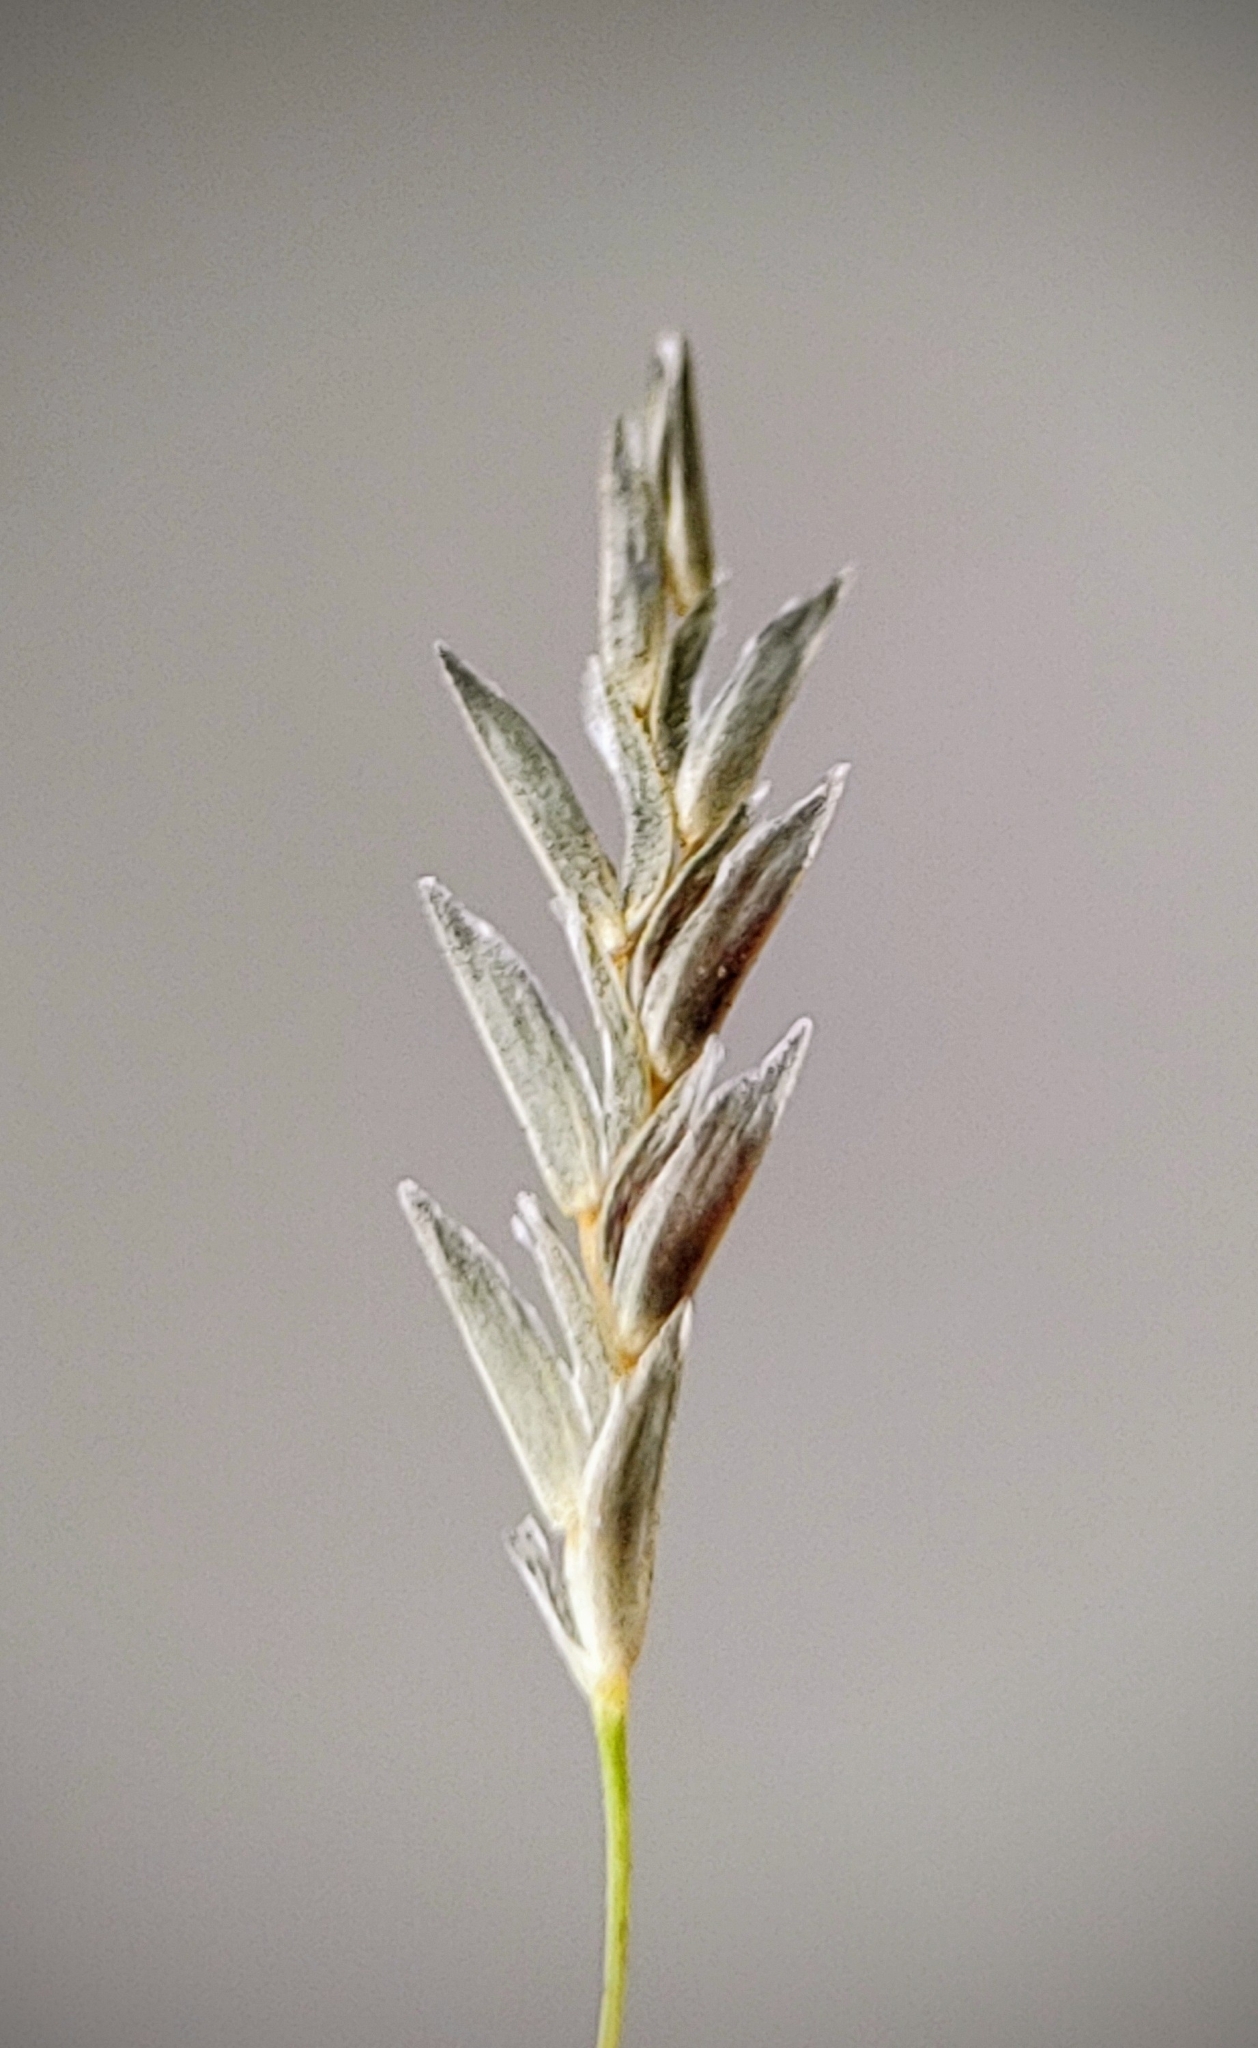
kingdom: Plantae
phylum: Tracheophyta
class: Liliopsida
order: Poales
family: Poaceae
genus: Eragrostis
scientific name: Eragrostis tenuifolia
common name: Elastic grass
